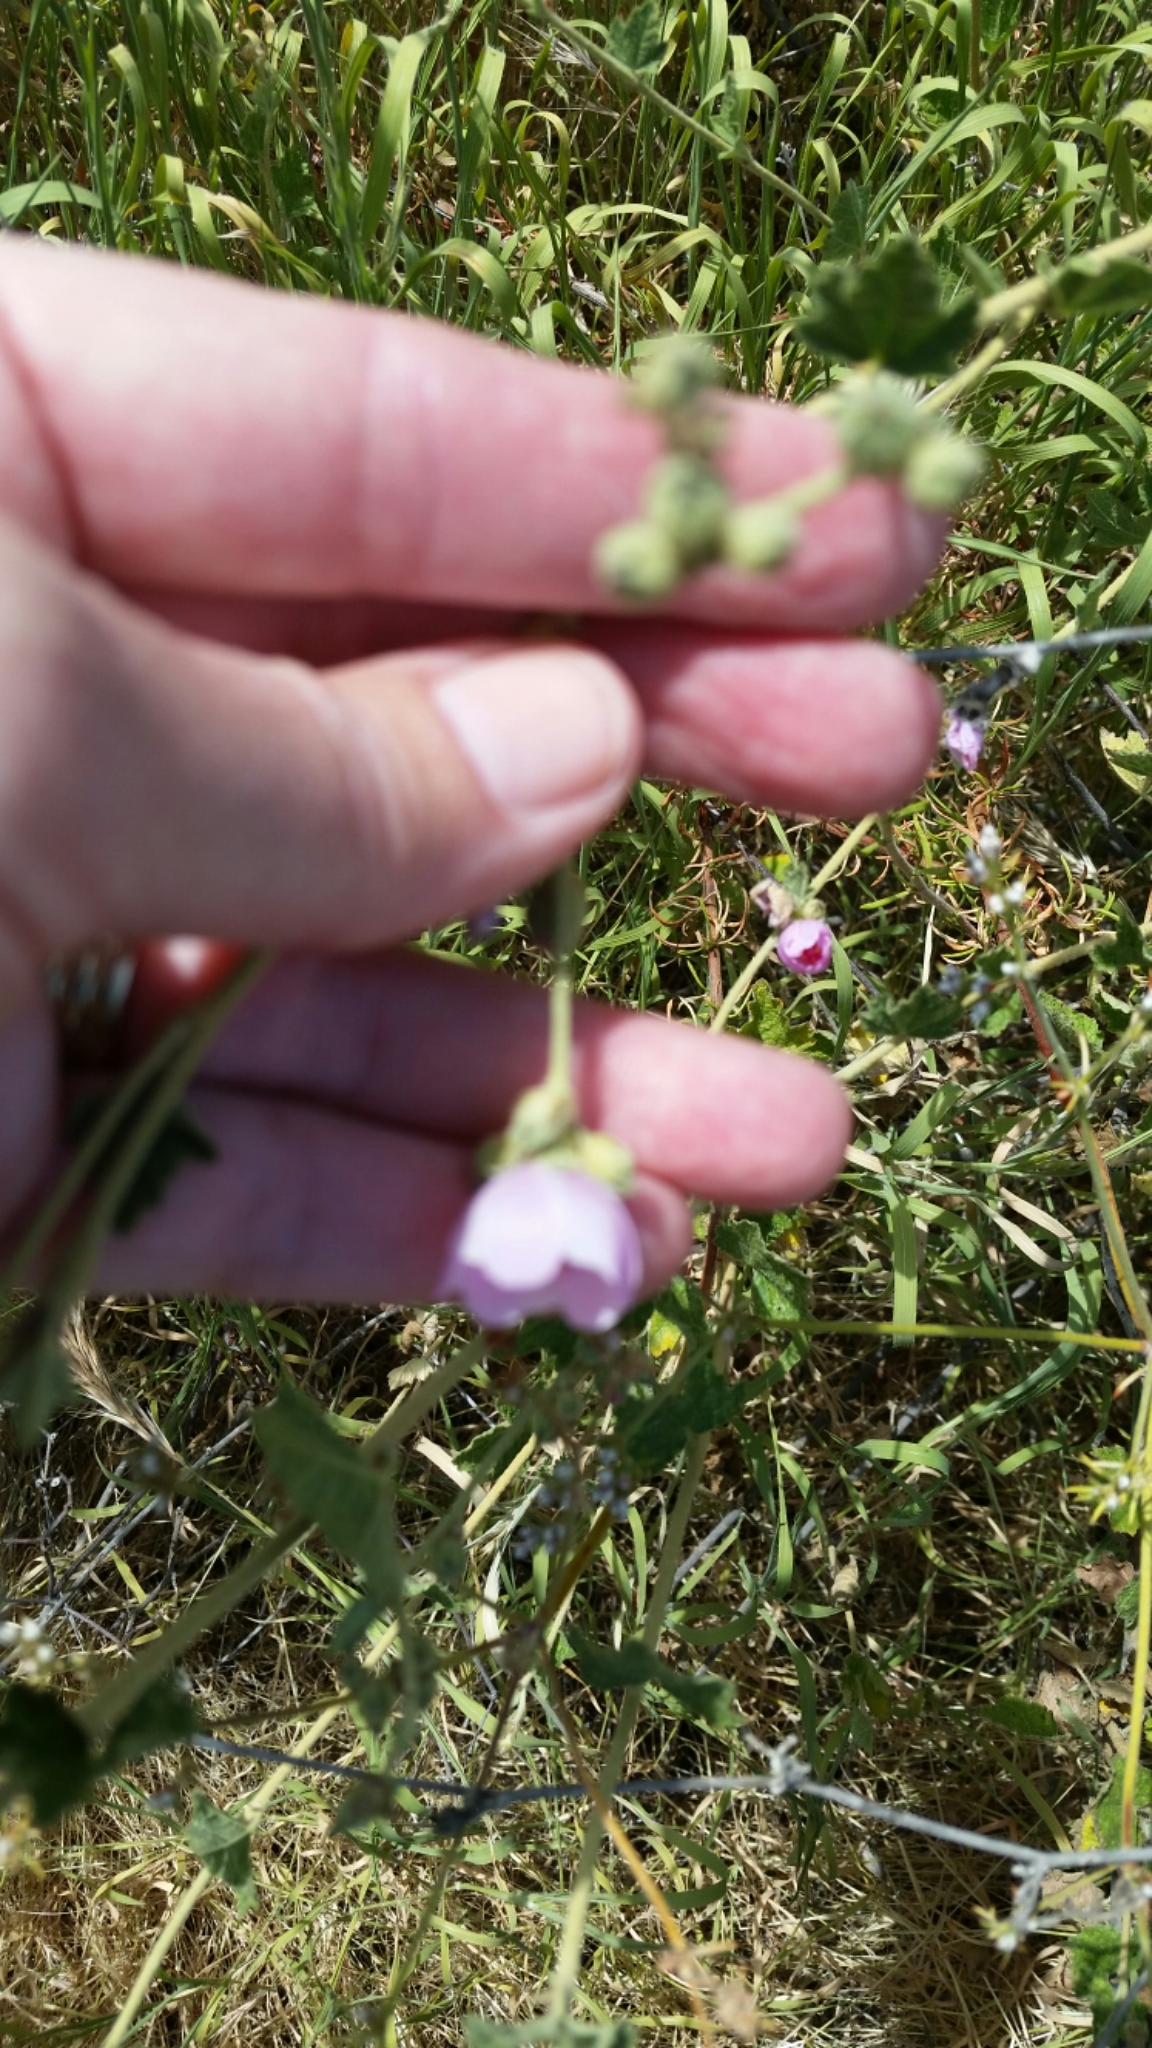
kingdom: Plantae
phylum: Tracheophyta
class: Magnoliopsida
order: Malvales
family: Malvaceae
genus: Malacothamnus
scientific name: Malacothamnus fasciculatus
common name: Sant cruz island bush-mallow
